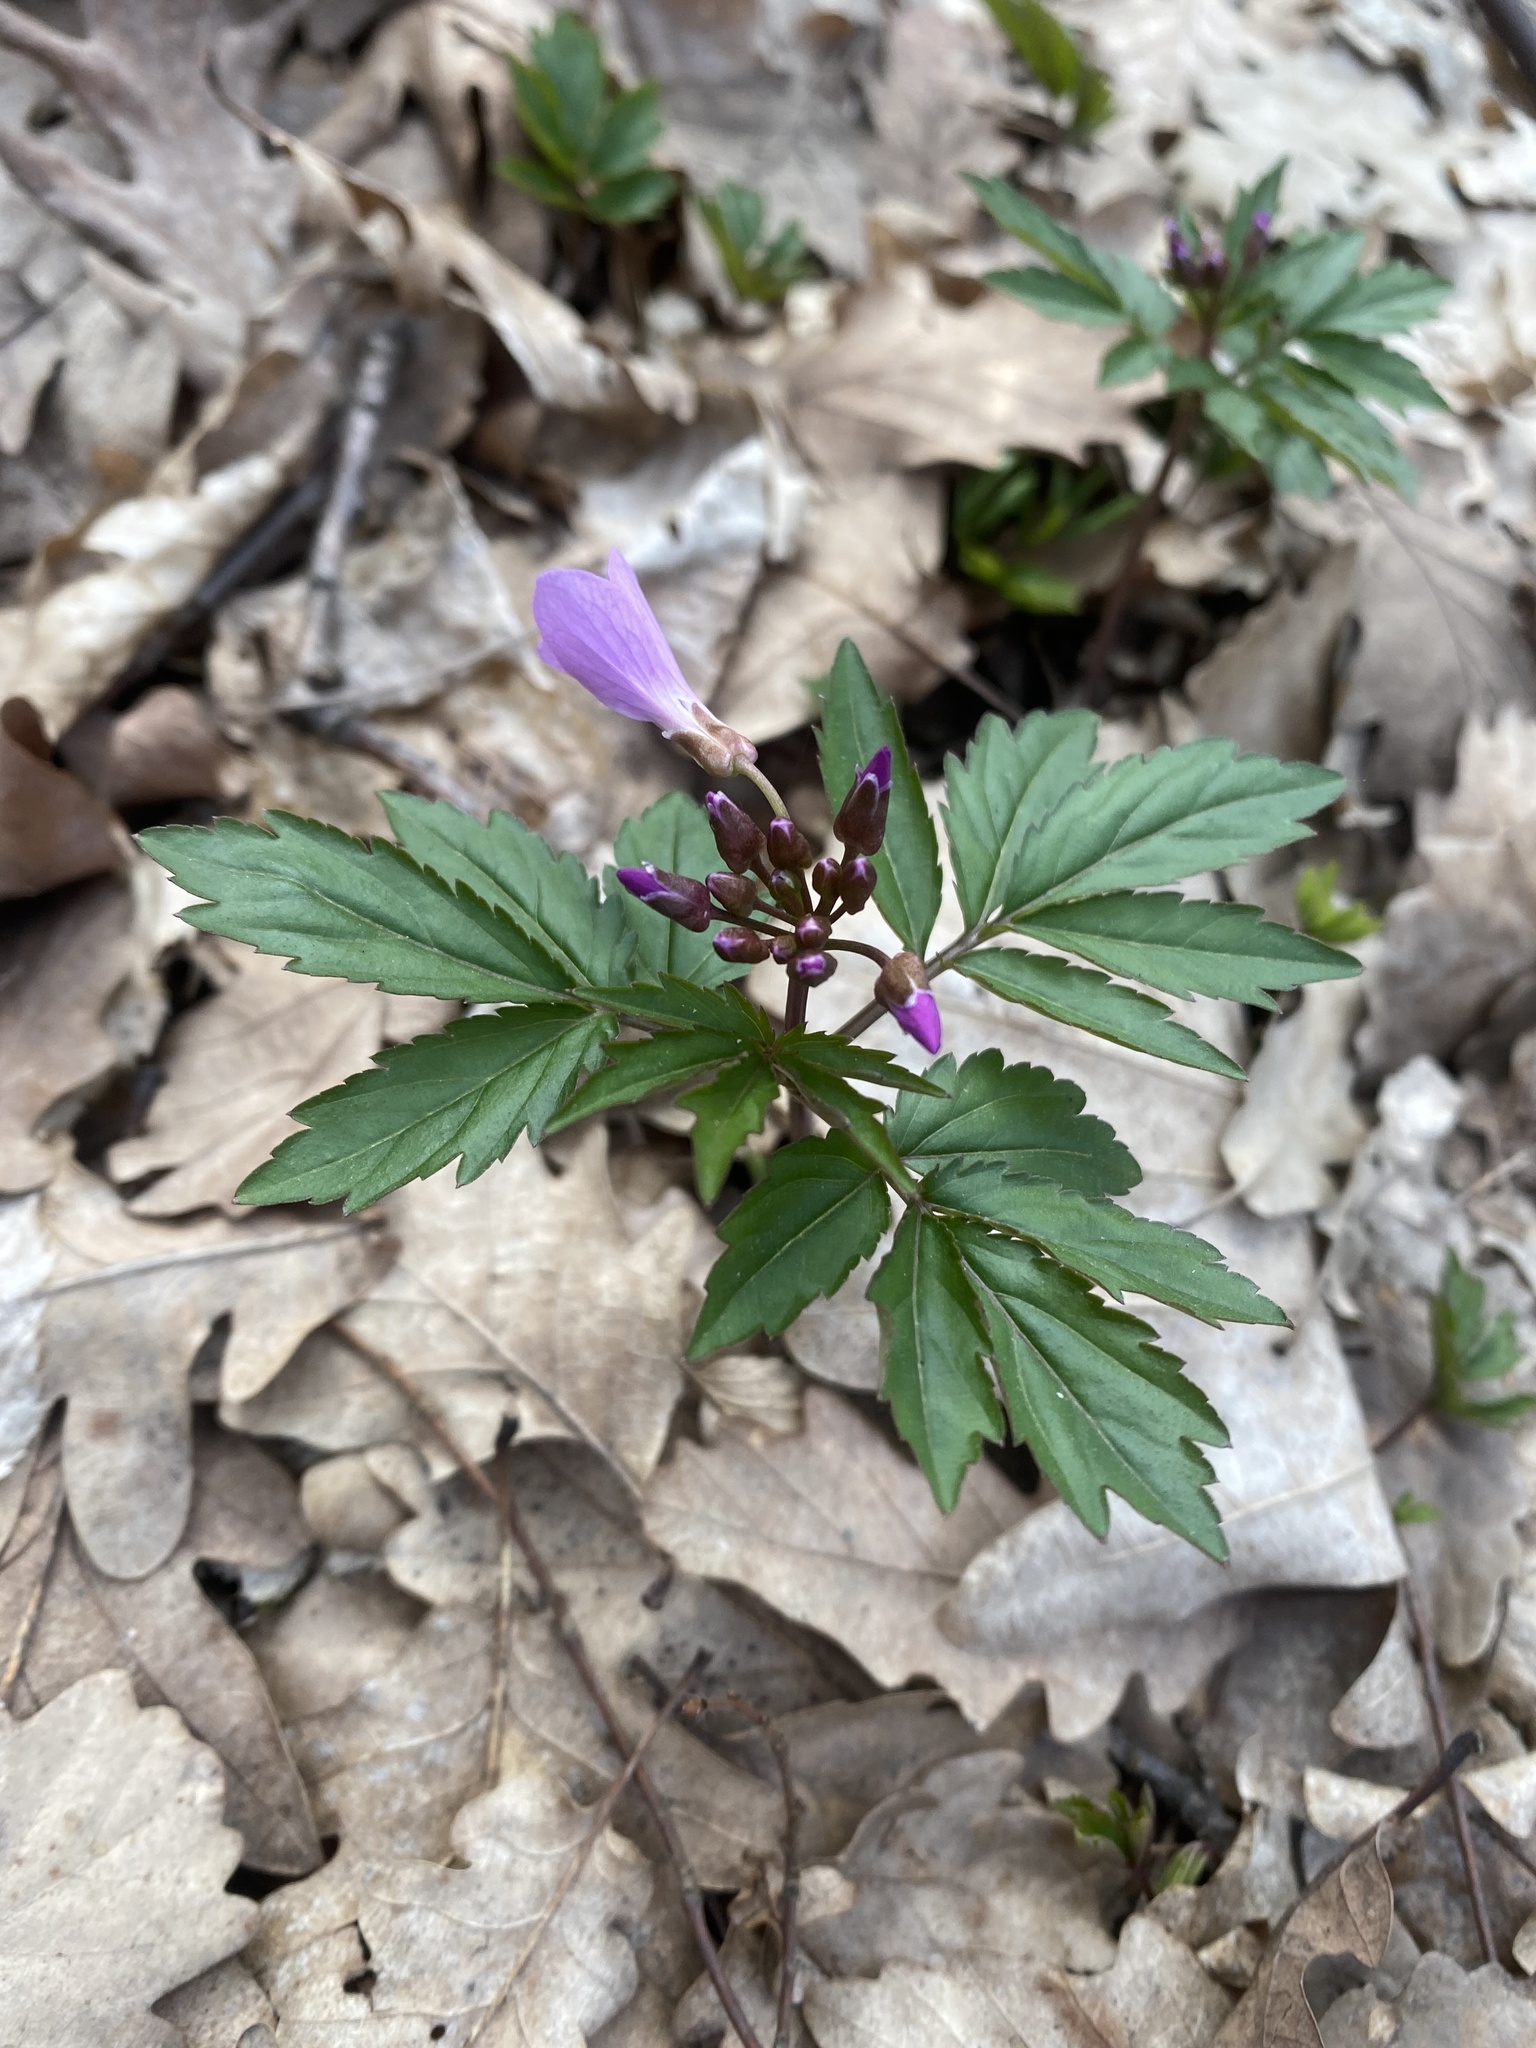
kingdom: Plantae
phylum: Tracheophyta
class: Magnoliopsida
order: Brassicales
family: Brassicaceae
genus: Cardamine
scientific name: Cardamine quinquefolia
